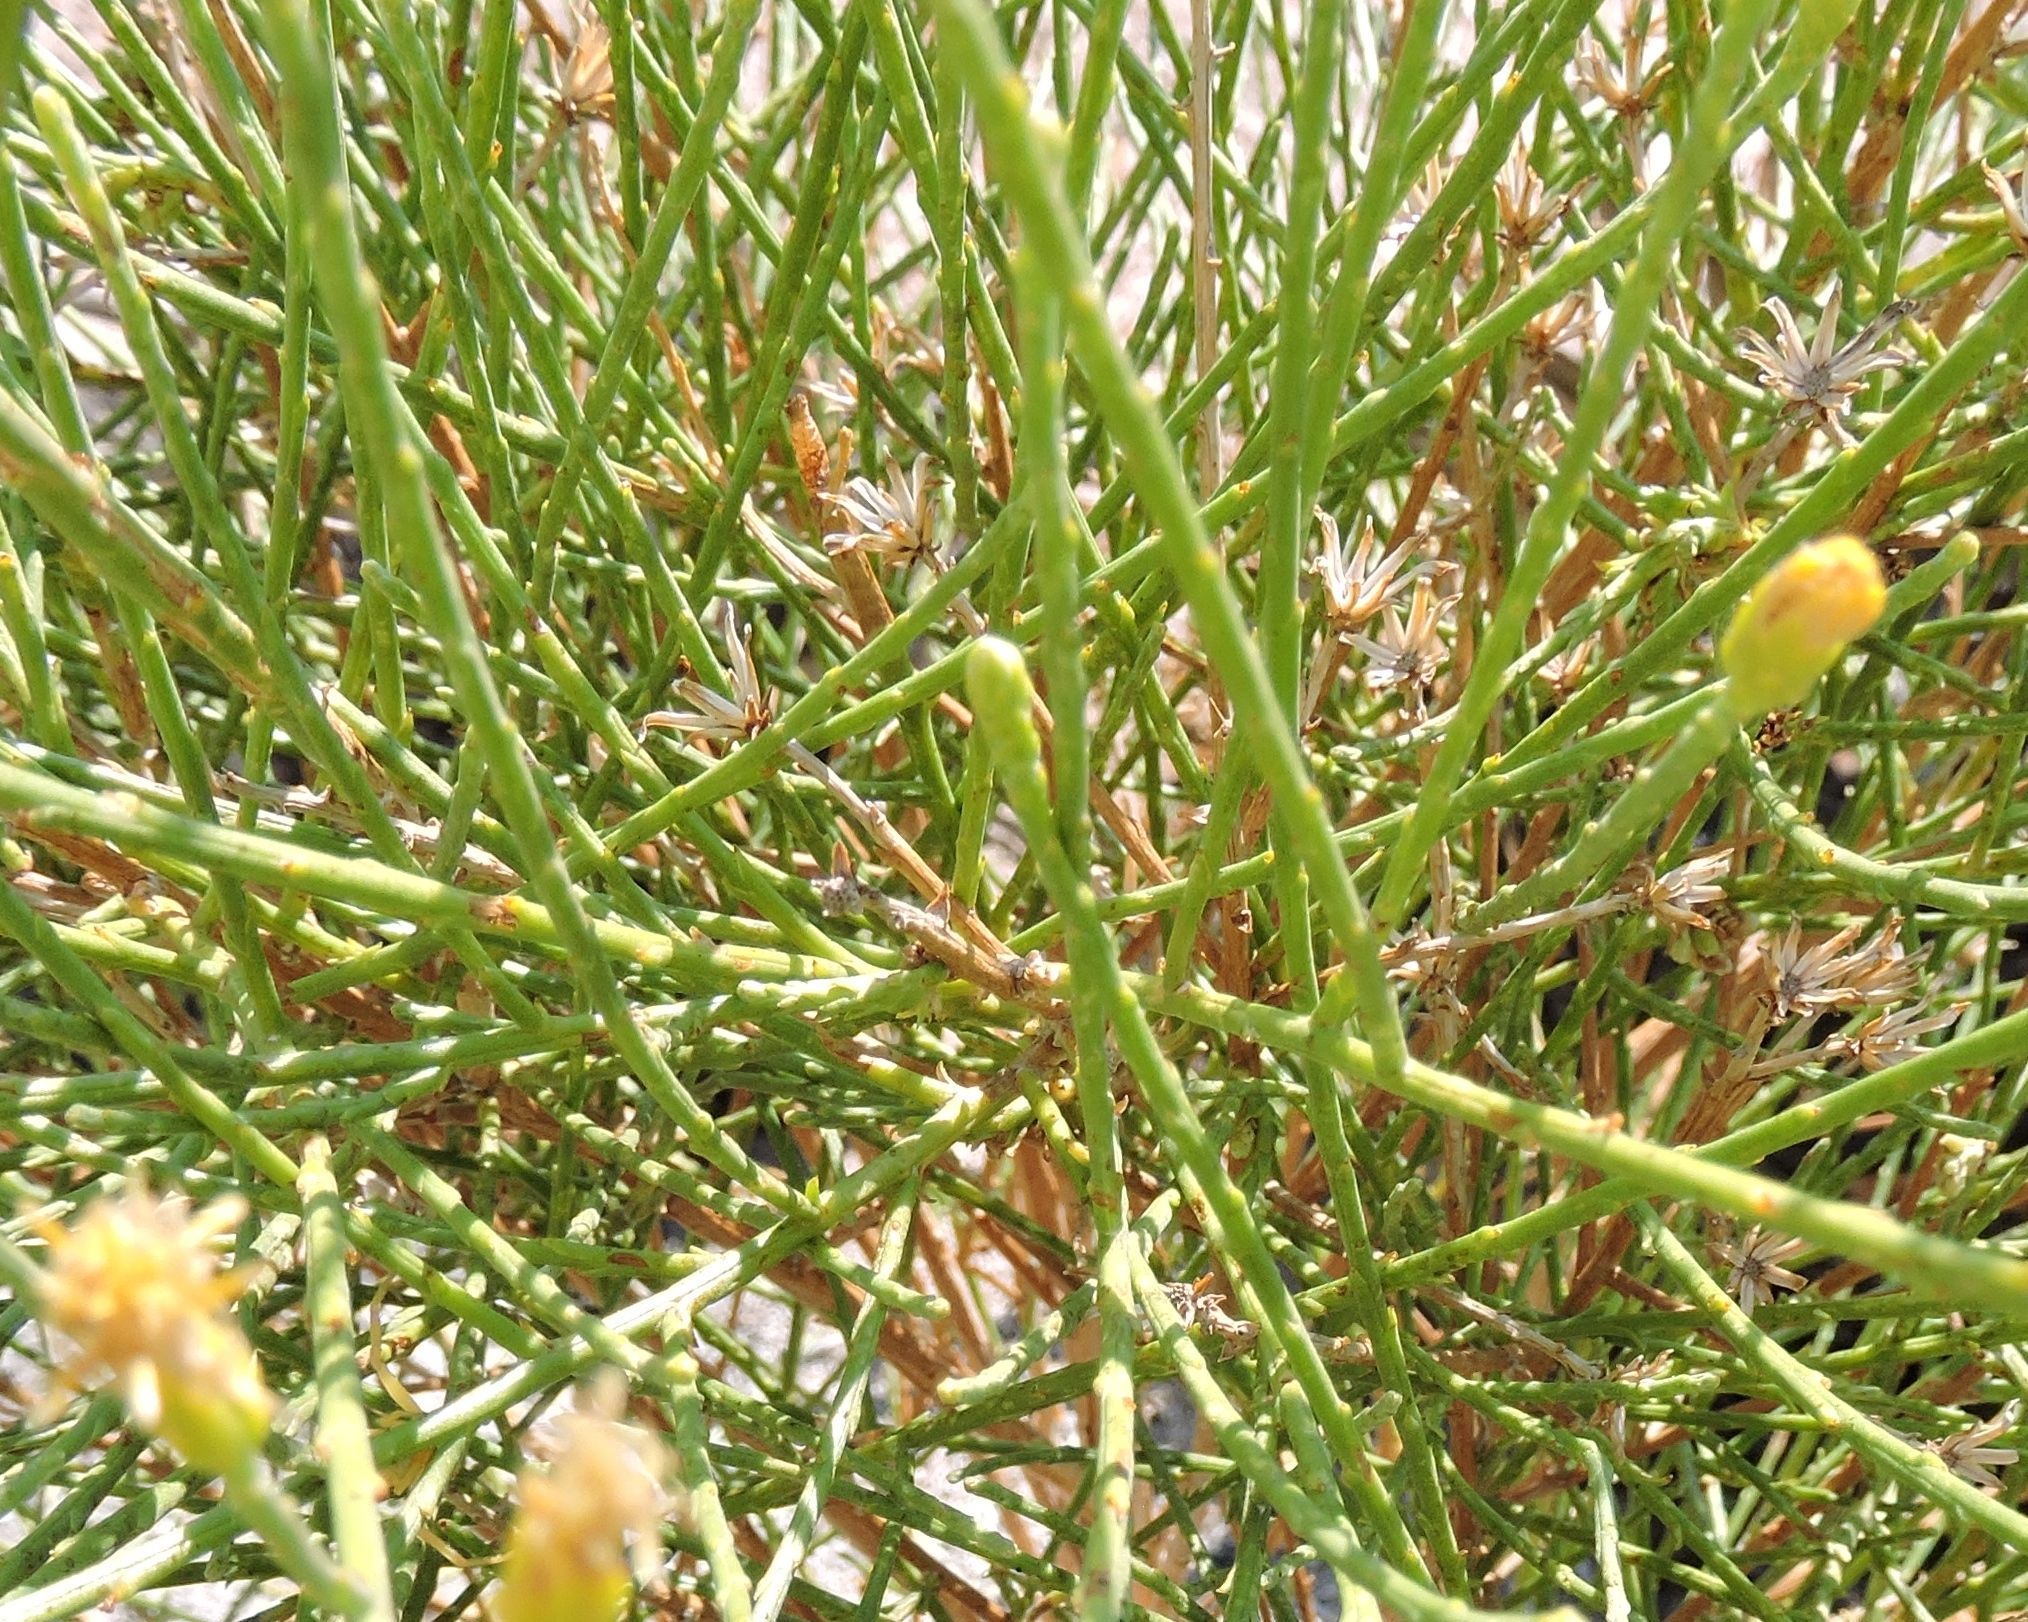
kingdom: Plantae
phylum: Tracheophyta
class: Magnoliopsida
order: Asterales
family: Asteraceae
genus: Lepidospartum
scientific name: Lepidospartum squamatum
